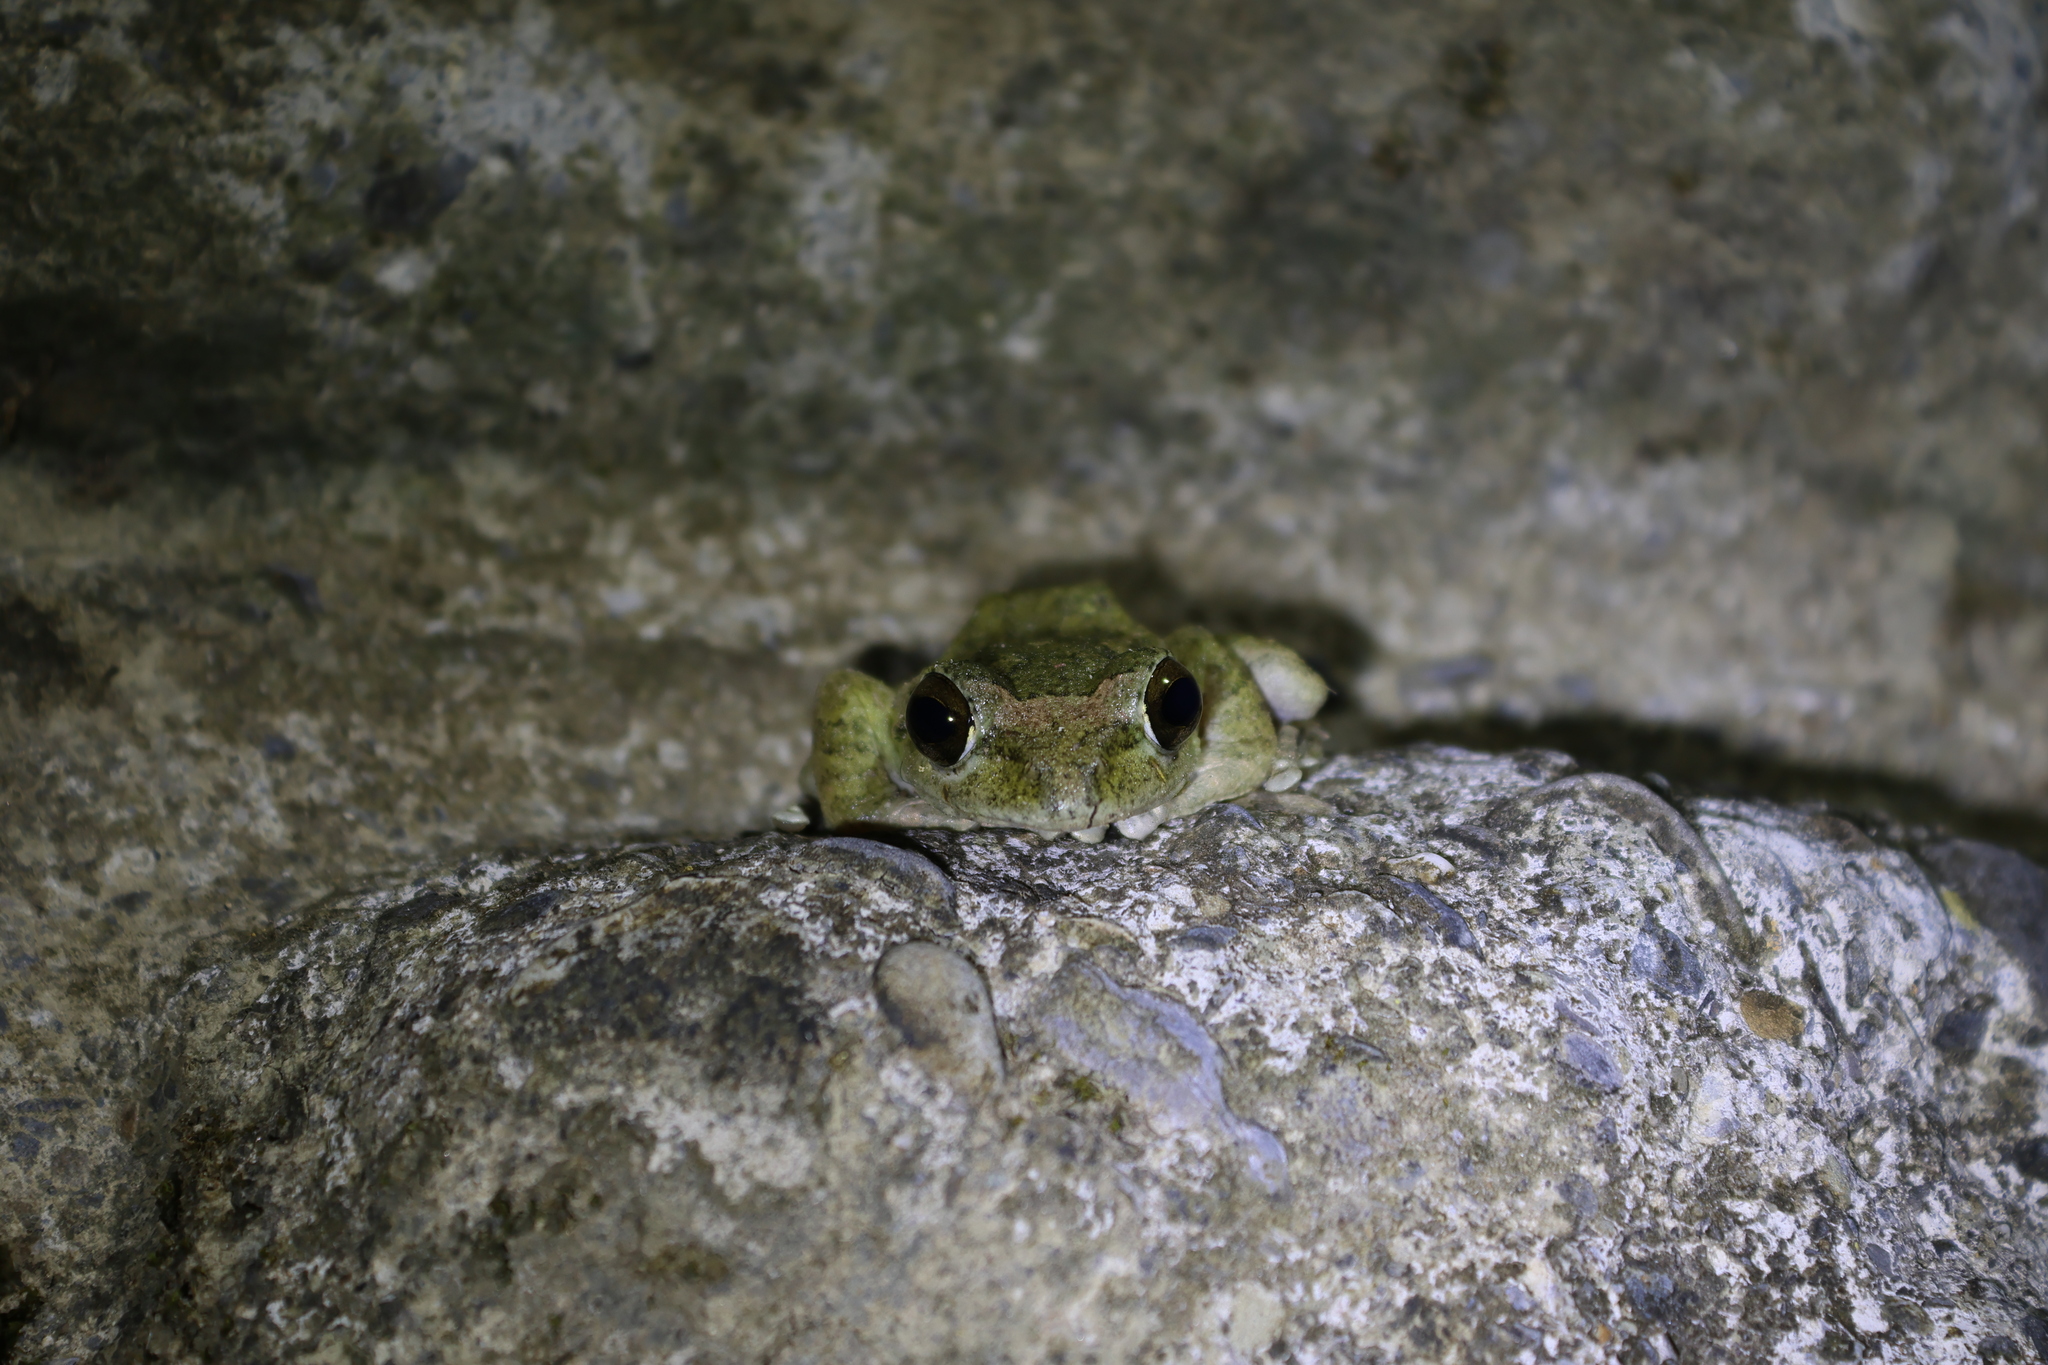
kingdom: Animalia
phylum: Chordata
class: Amphibia
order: Anura
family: Rhacophoridae
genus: Buergeria
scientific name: Buergeria robusta
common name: Brown treefrog
